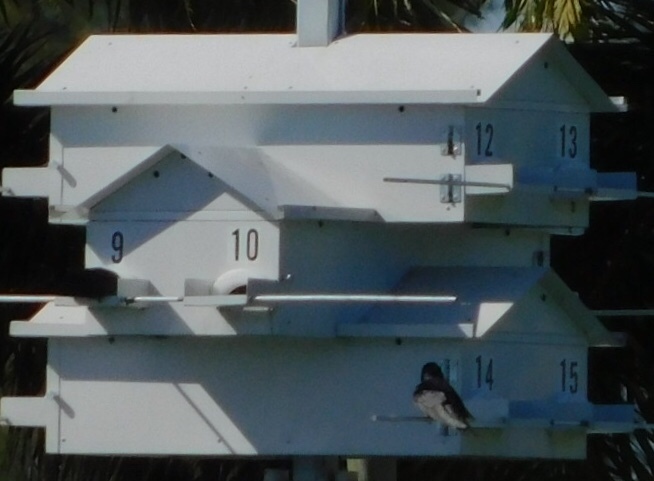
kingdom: Animalia
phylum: Chordata
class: Aves
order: Passeriformes
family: Hirundinidae
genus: Progne
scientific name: Progne subis
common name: Purple martin
